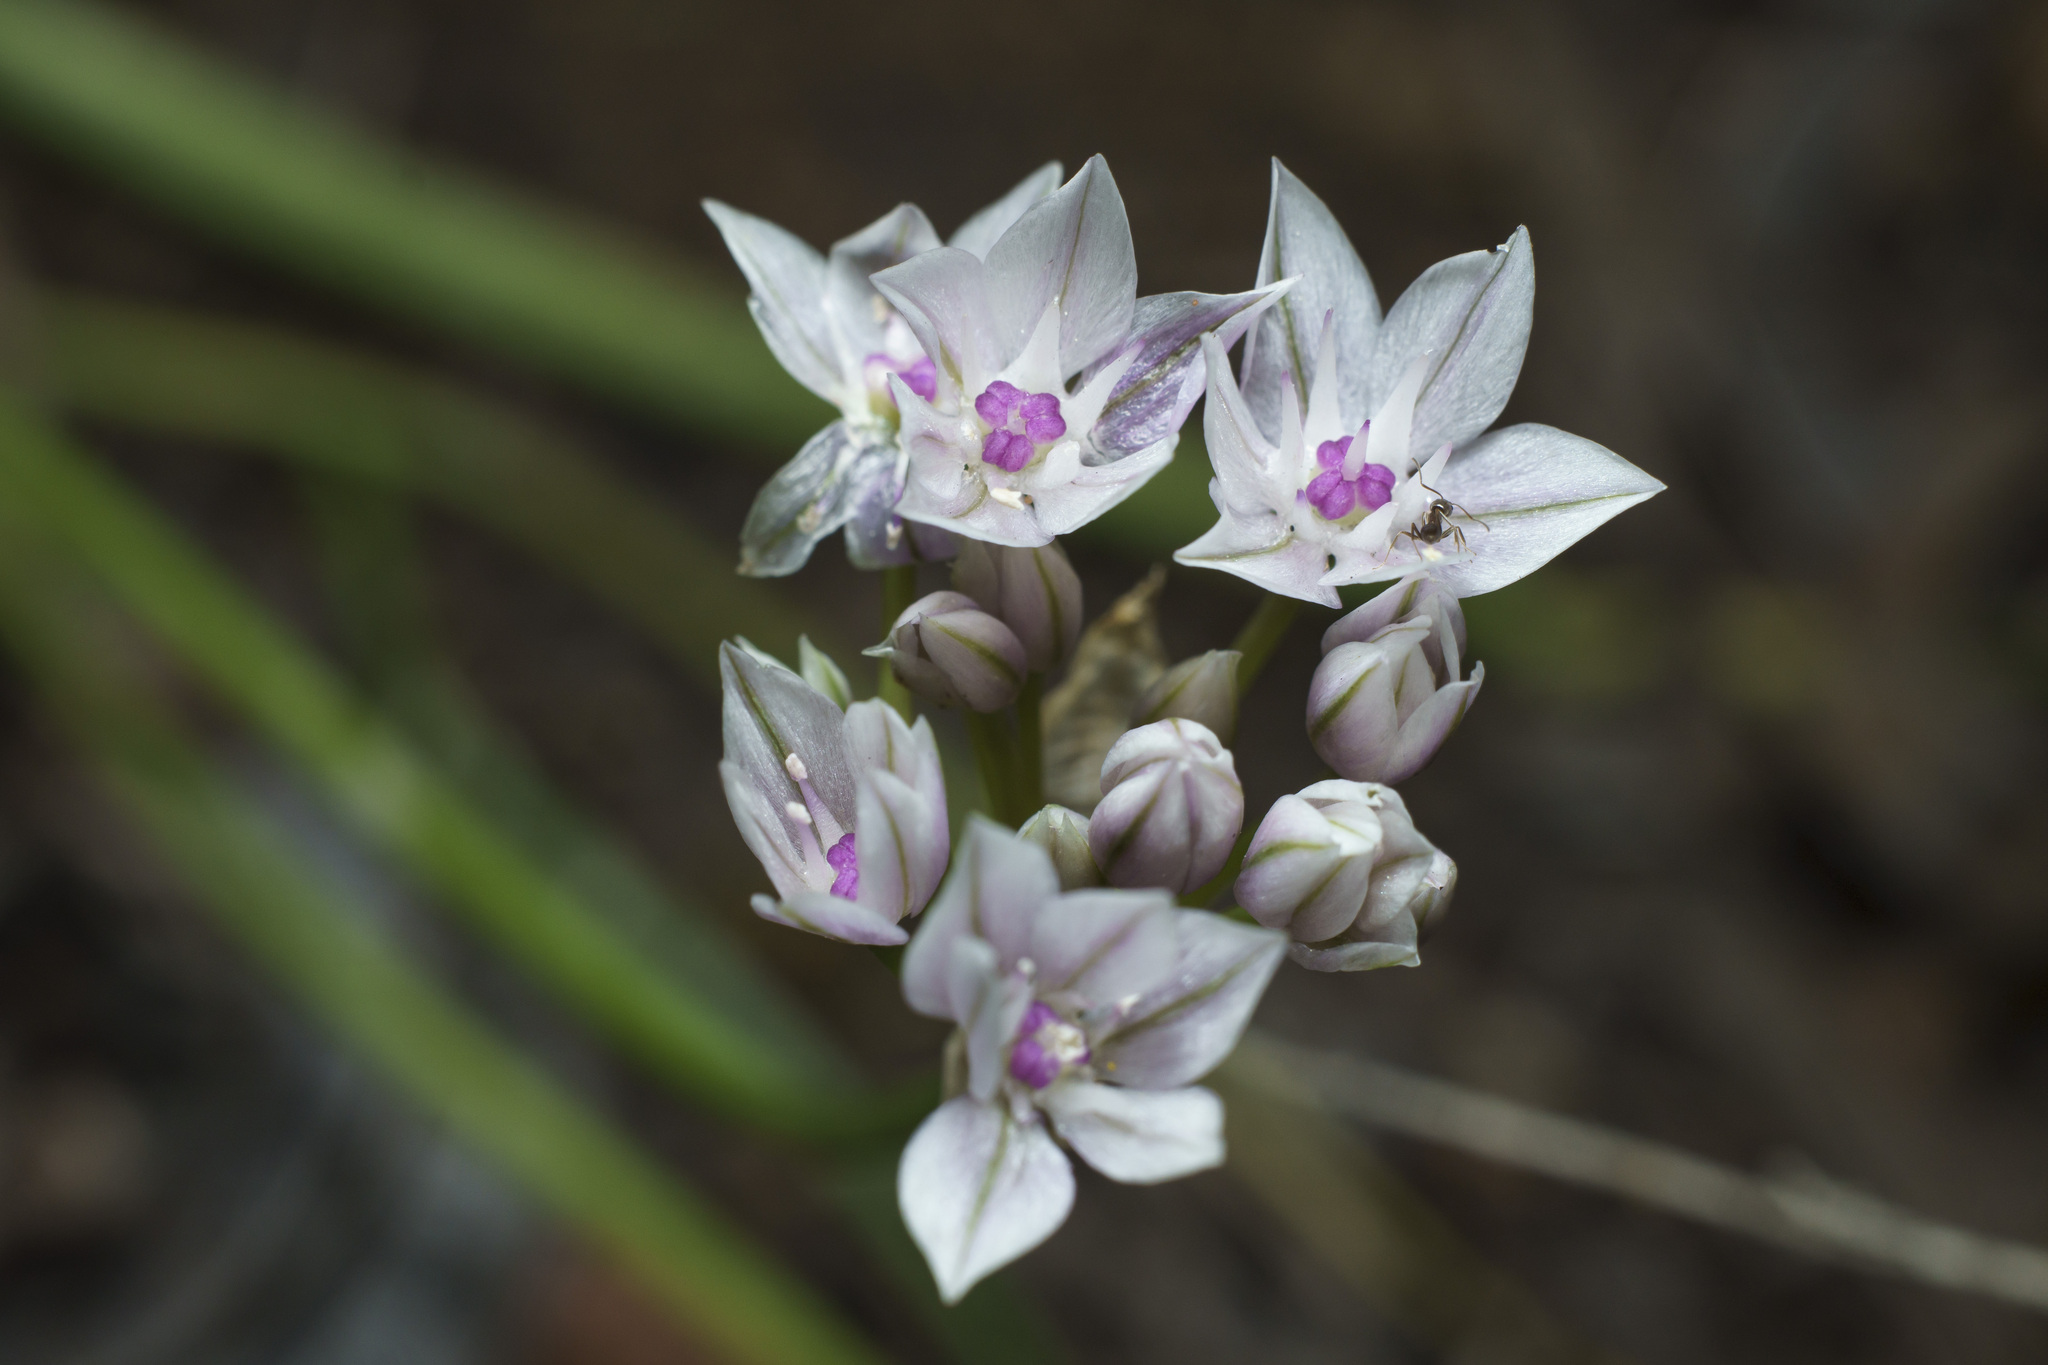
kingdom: Plantae
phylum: Tracheophyta
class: Liliopsida
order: Asparagales
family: Amaryllidaceae
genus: Allium
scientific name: Allium praecox
